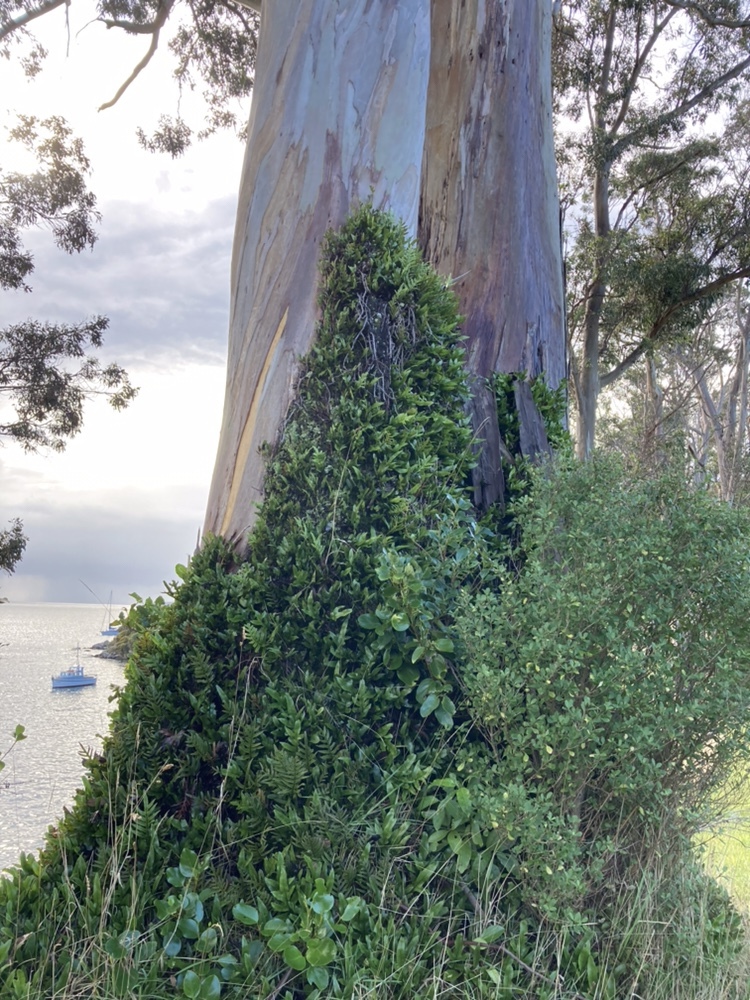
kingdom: Plantae
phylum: Tracheophyta
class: Polypodiopsida
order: Polypodiales
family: Polypodiaceae
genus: Lecanopteris
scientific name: Lecanopteris pustulata
